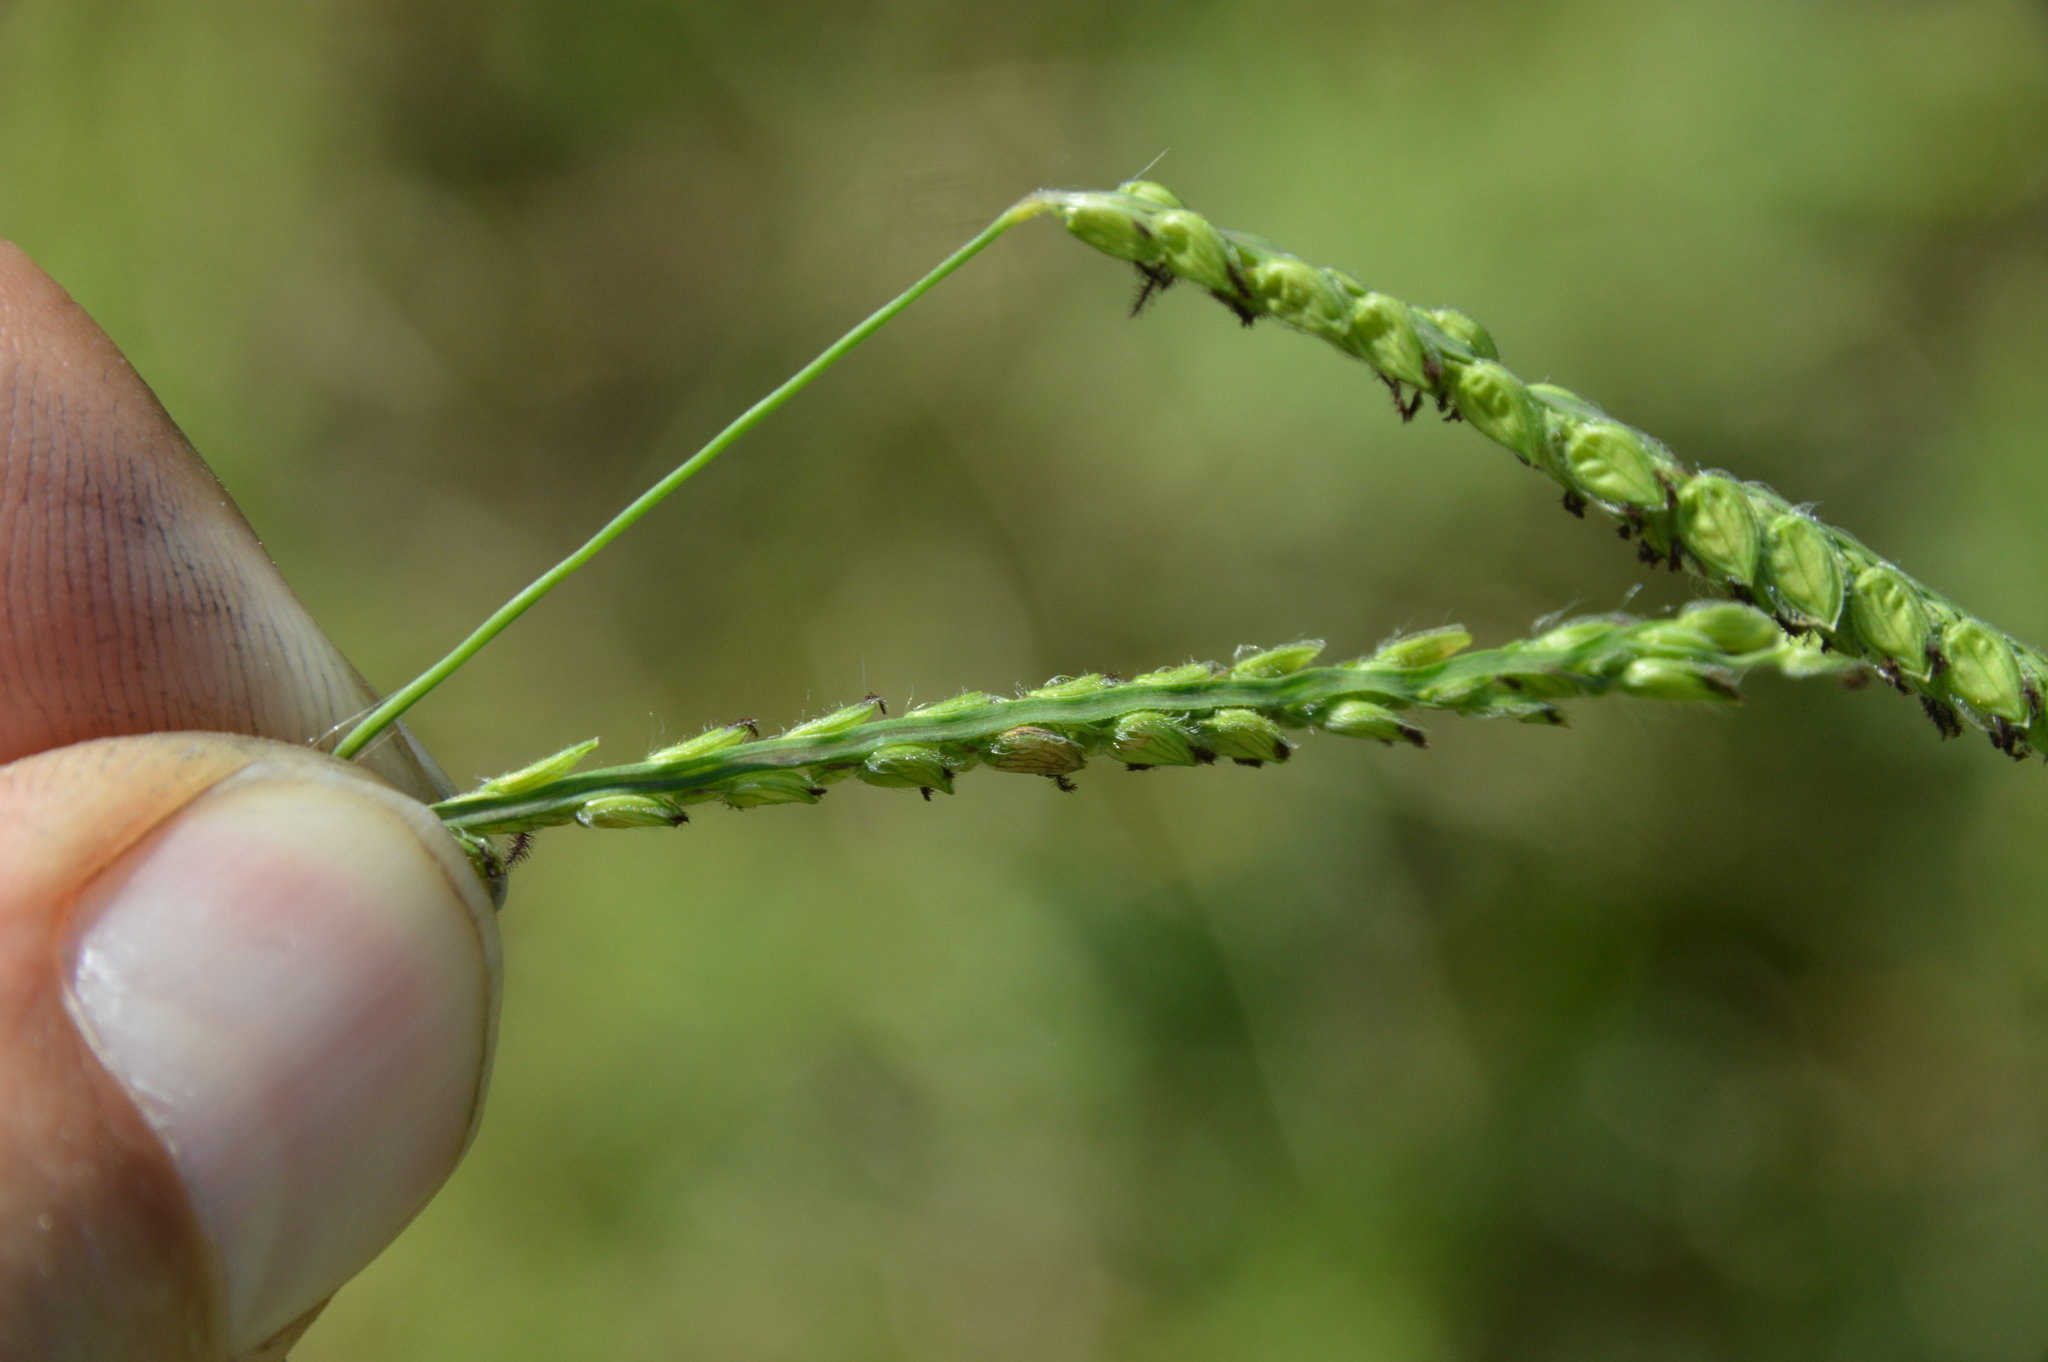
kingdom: Plantae
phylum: Tracheophyta
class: Liliopsida
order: Poales
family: Poaceae
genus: Paspalum
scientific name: Paspalum dilatatum
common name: Dallisgrass
